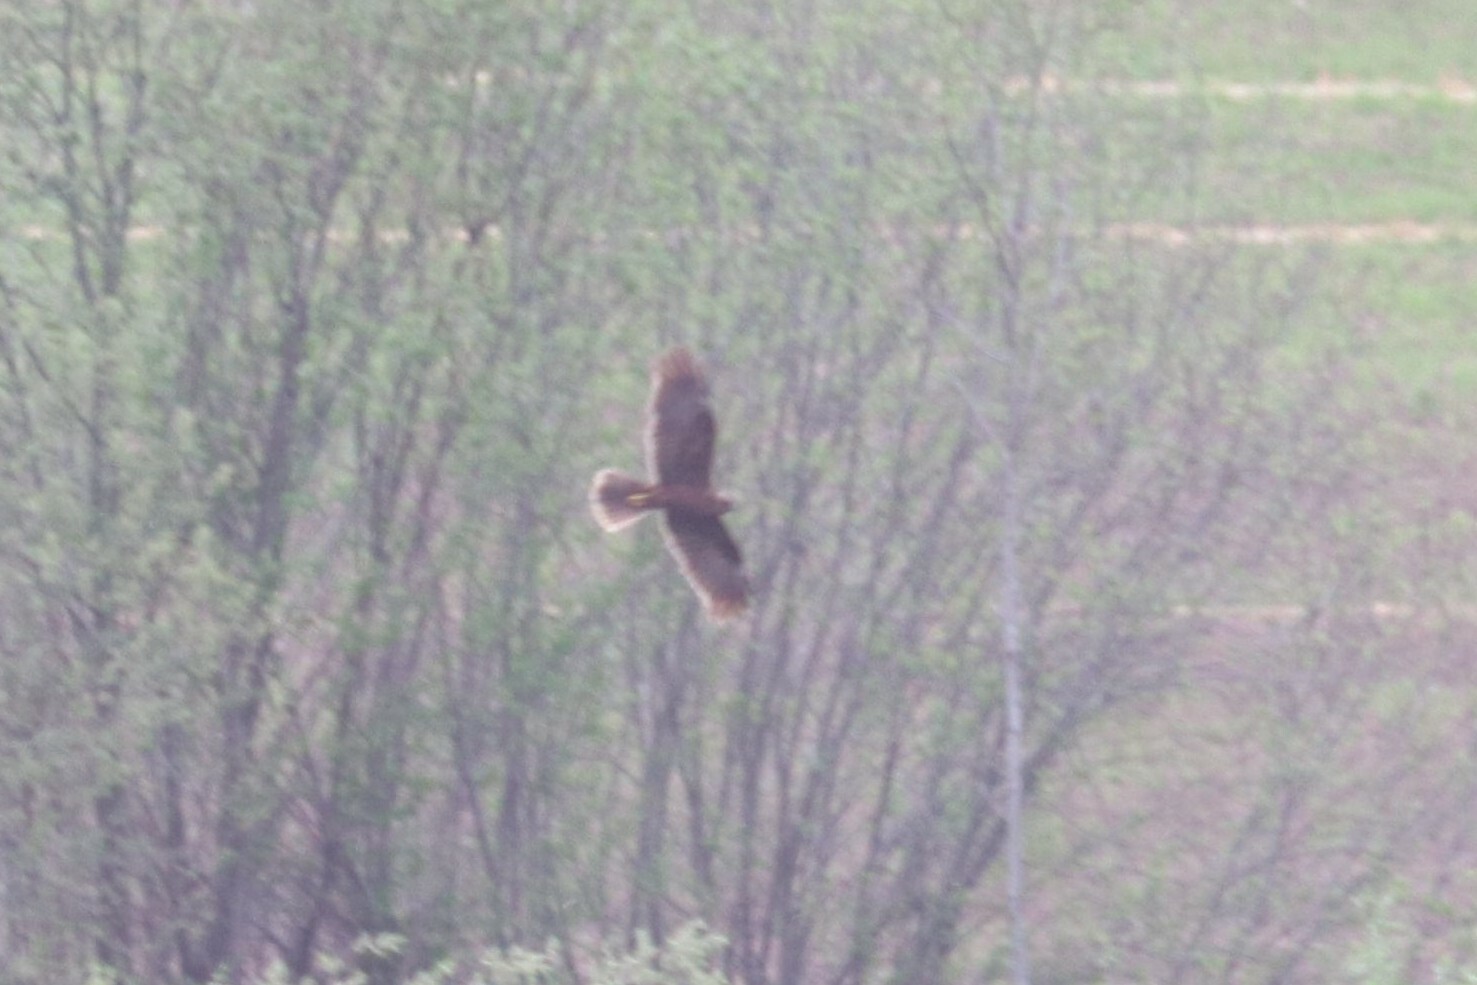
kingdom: Animalia
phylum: Chordata
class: Aves
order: Accipitriformes
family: Accipitridae
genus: Circus
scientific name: Circus aeruginosus
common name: Western marsh harrier
